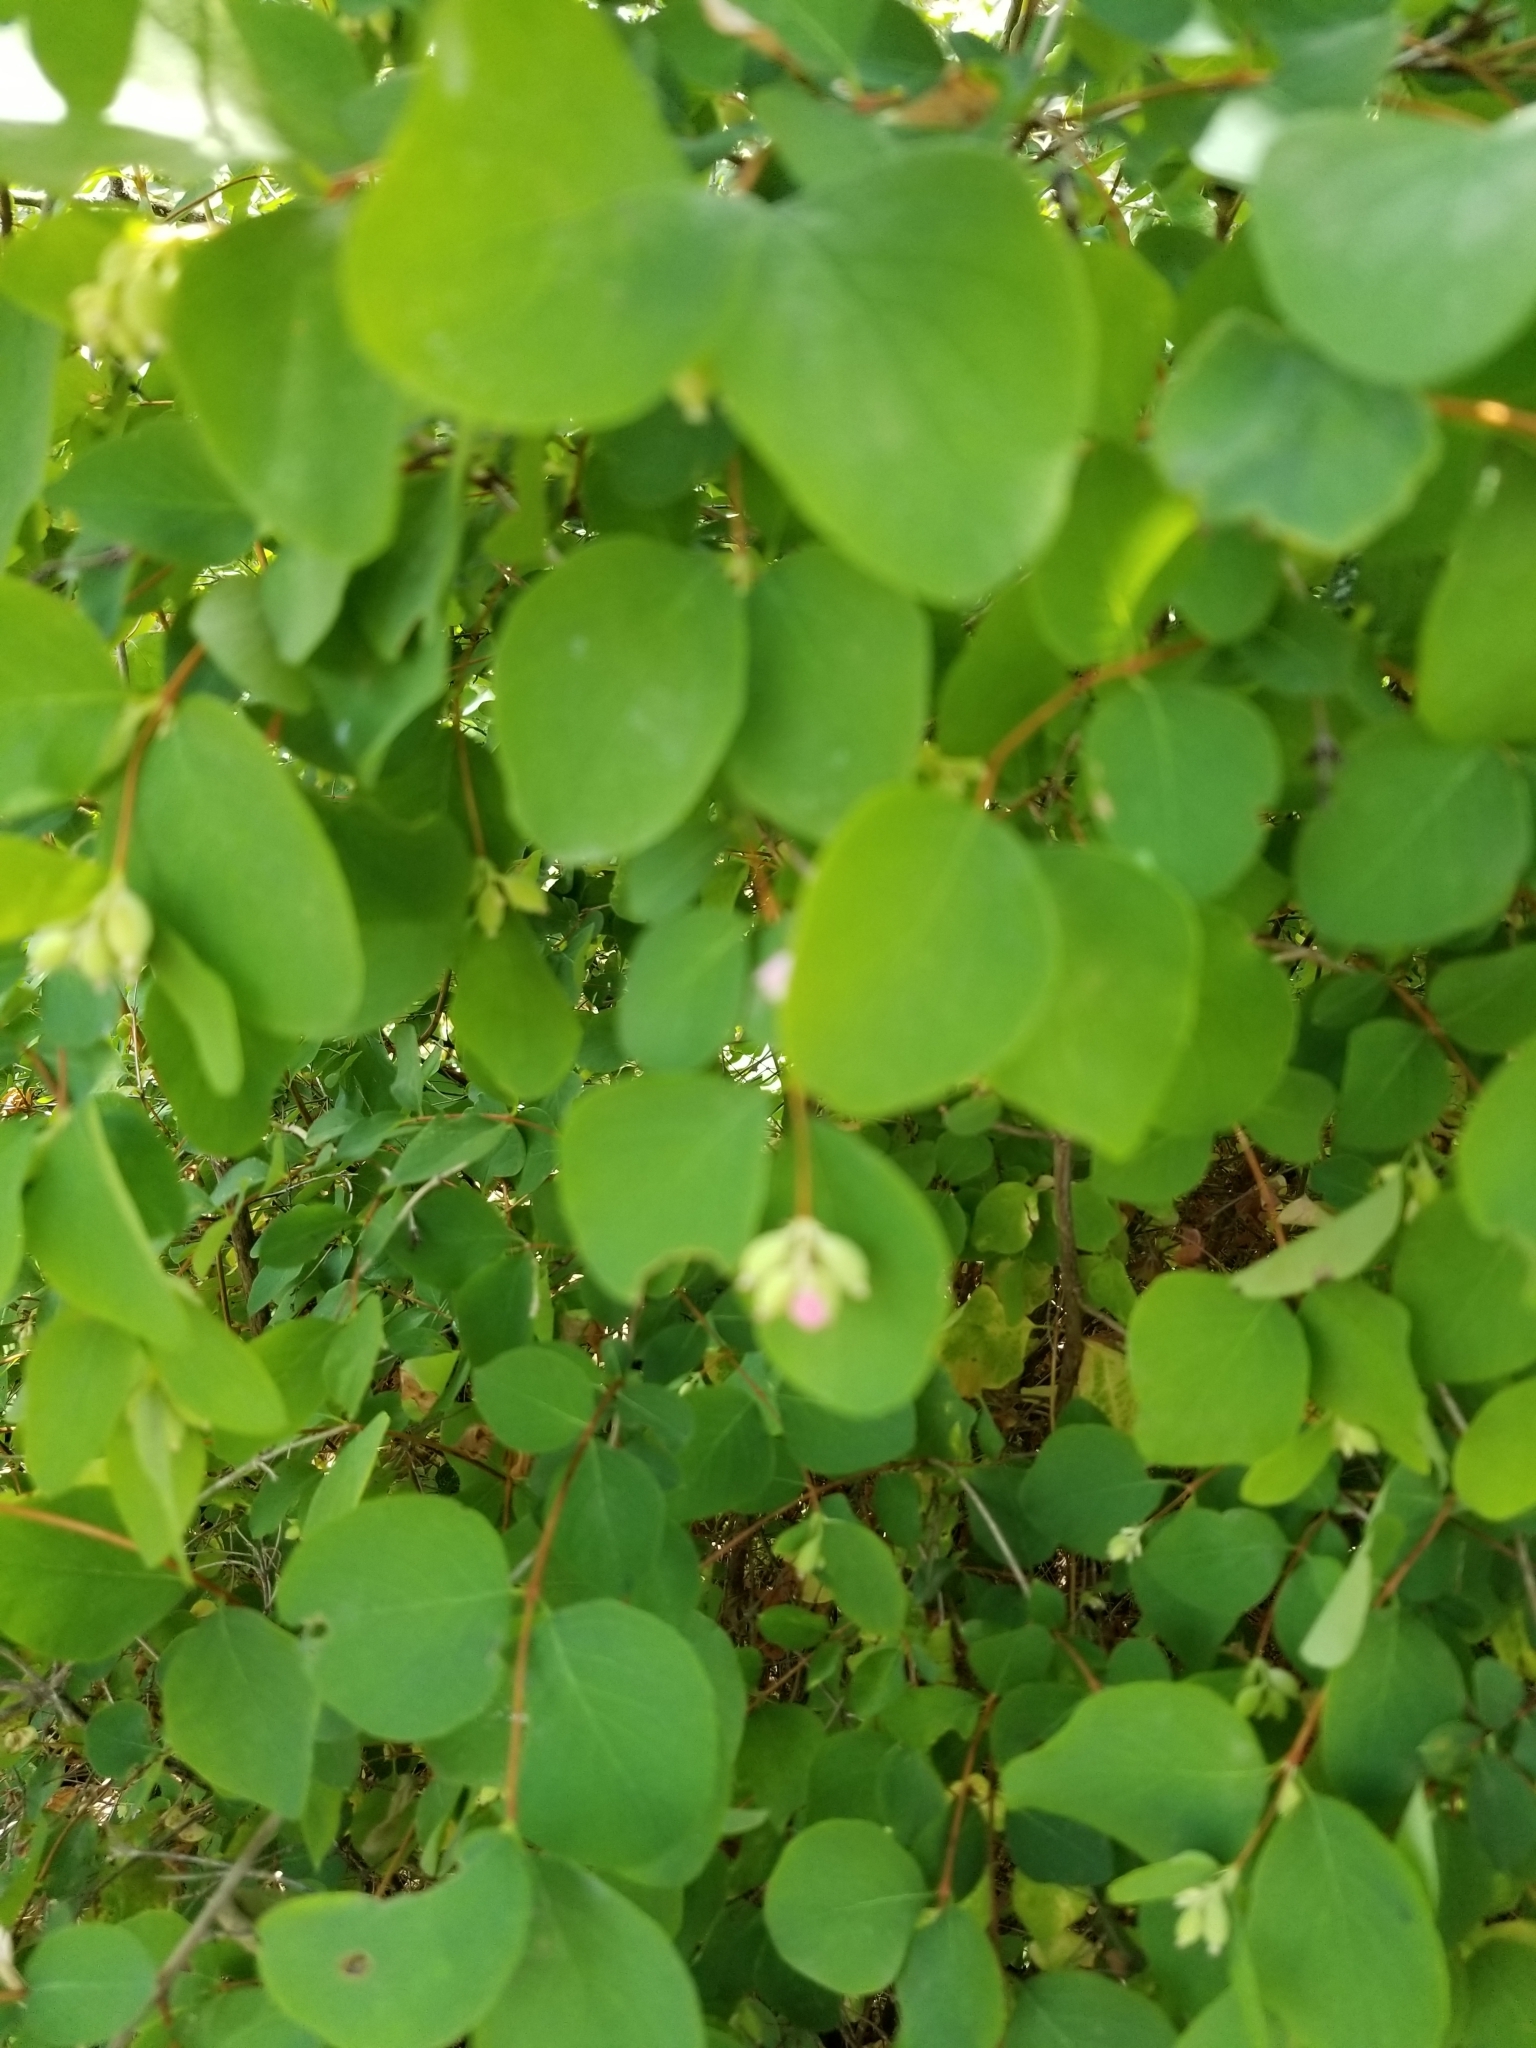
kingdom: Plantae
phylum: Tracheophyta
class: Magnoliopsida
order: Dipsacales
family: Caprifoliaceae
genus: Symphoricarpos
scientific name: Symphoricarpos albus
